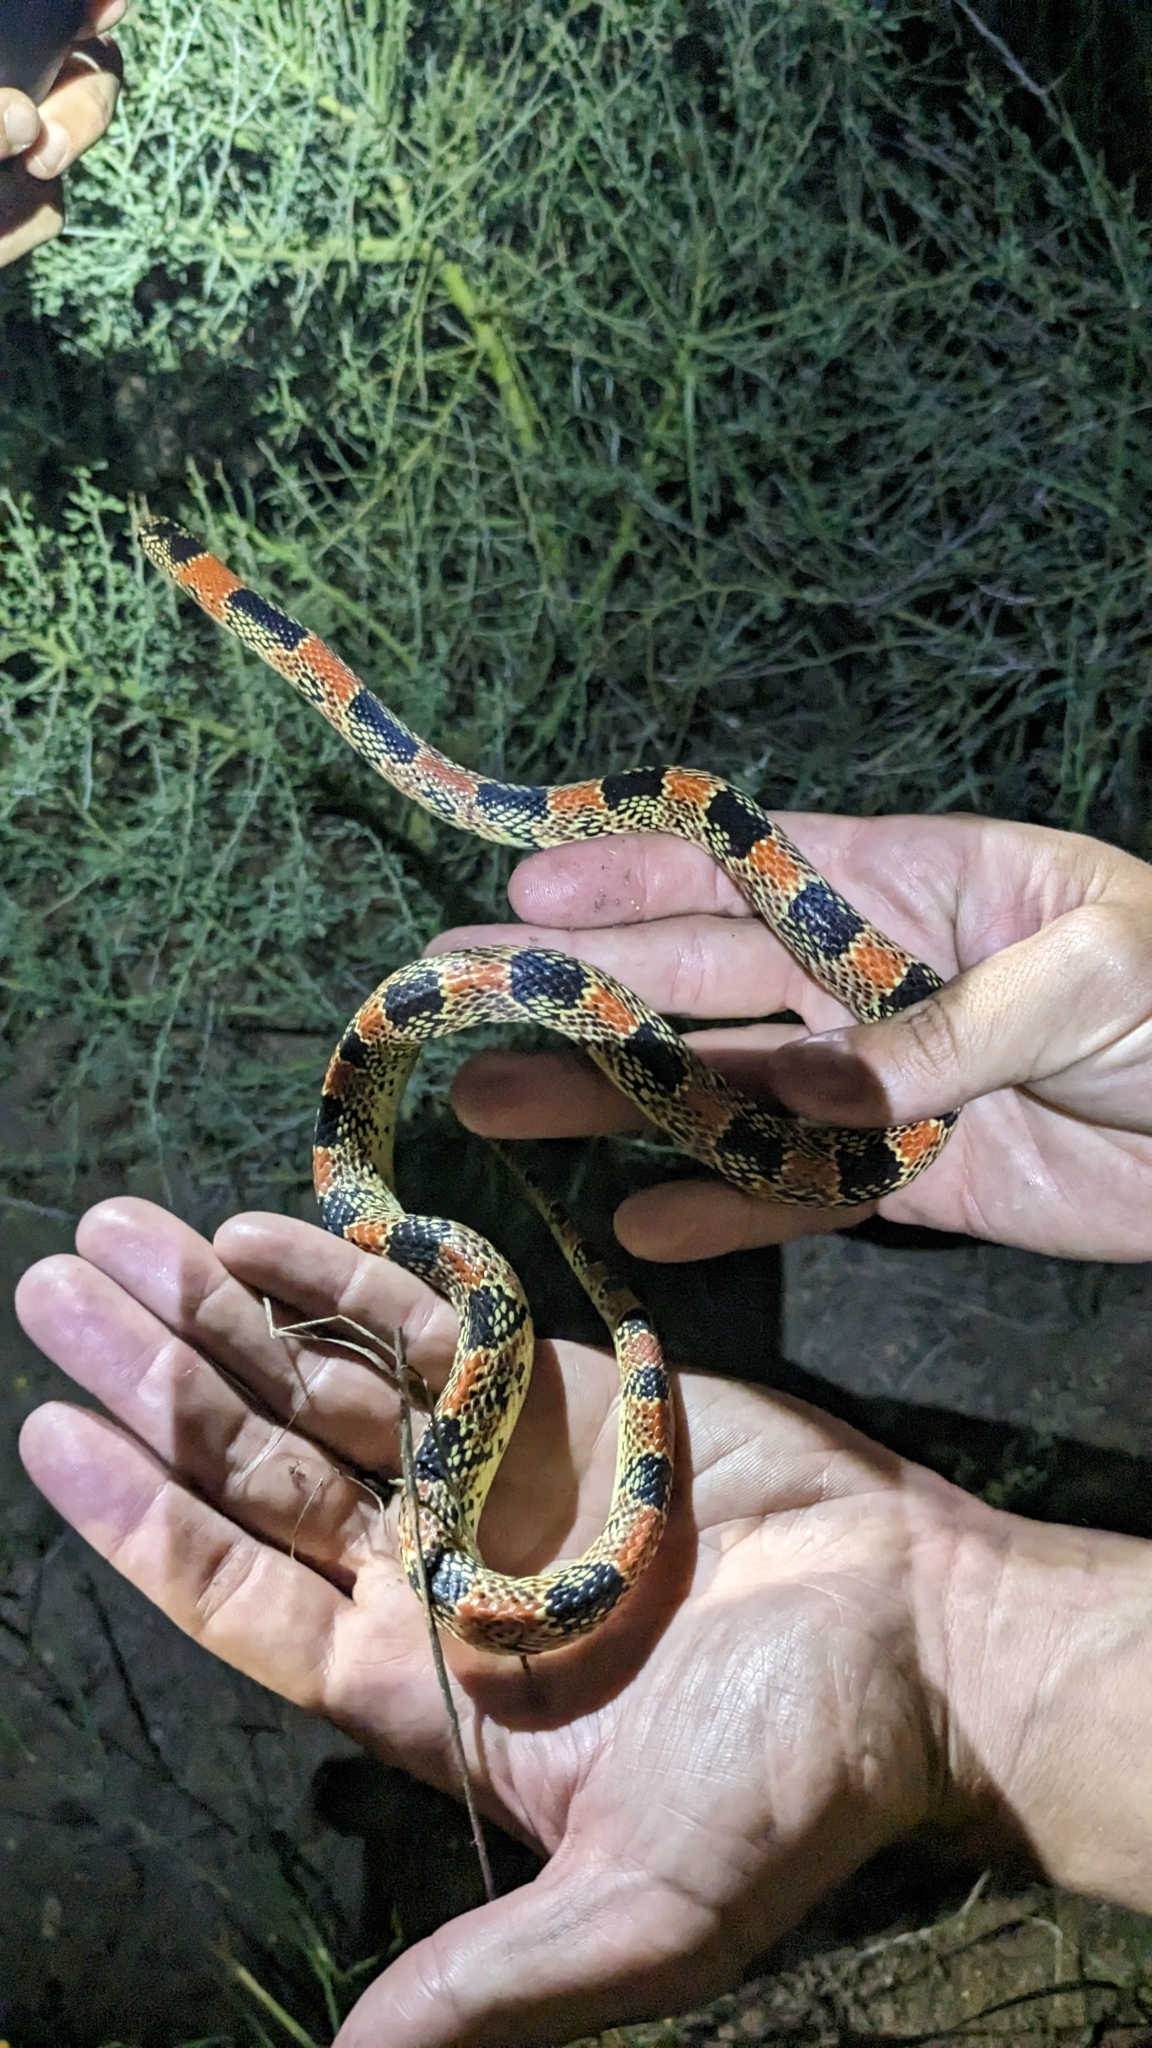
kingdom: Animalia
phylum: Chordata
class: Squamata
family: Colubridae
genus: Rhinocheilus
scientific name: Rhinocheilus lecontei
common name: Longnose snake
